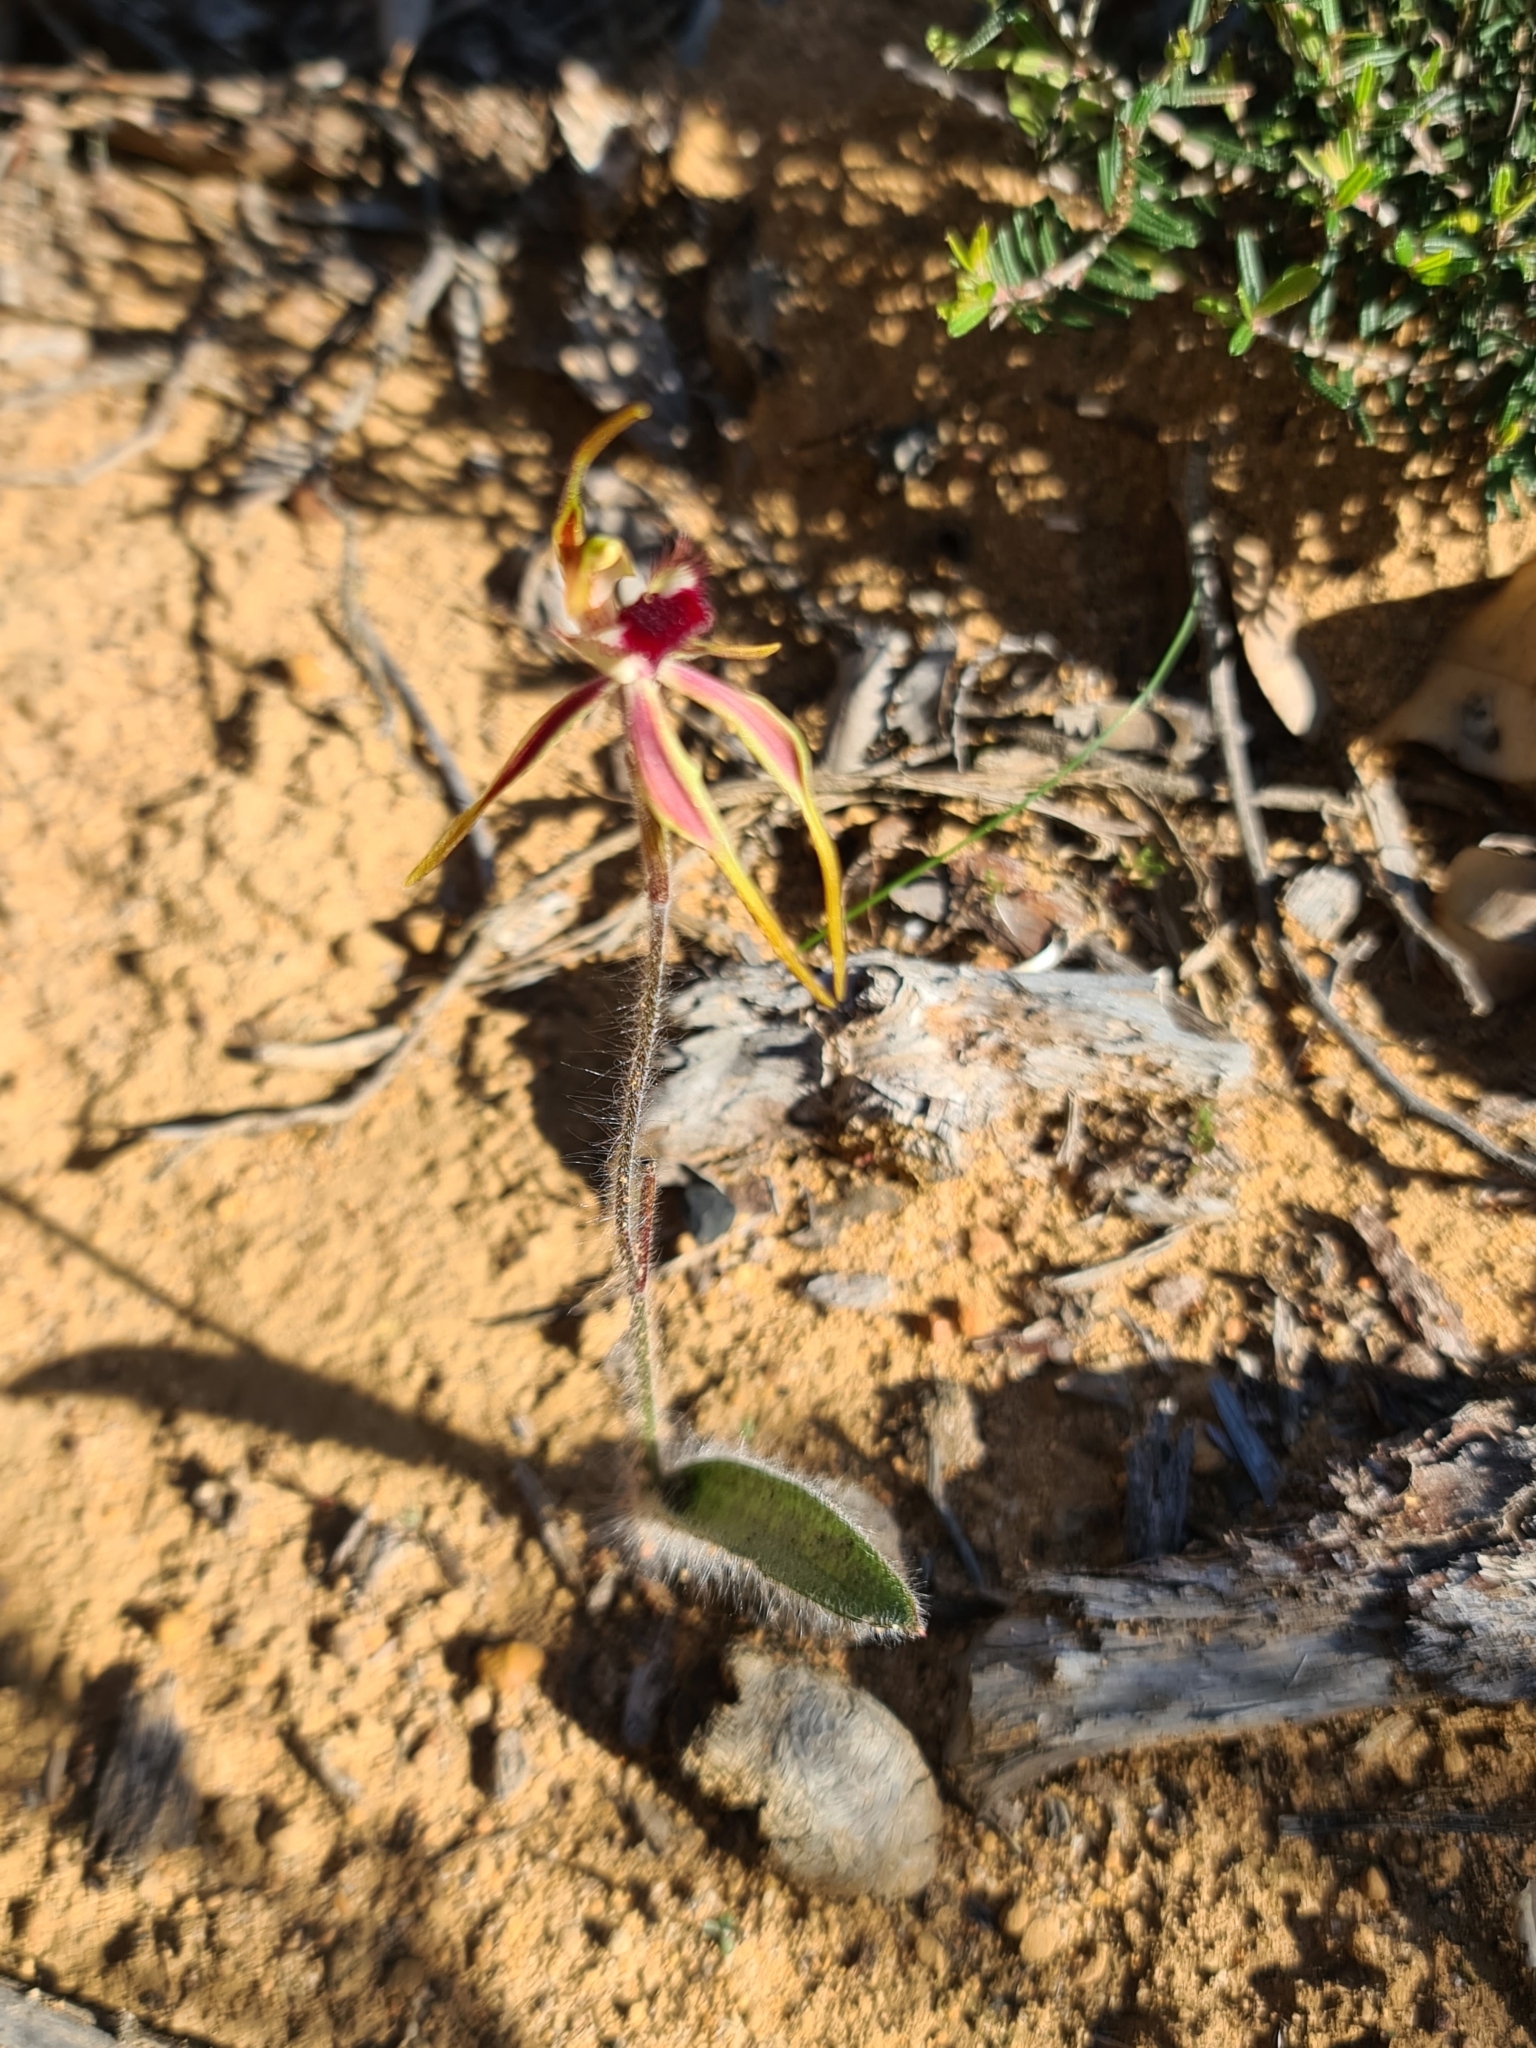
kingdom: Plantae
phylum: Tracheophyta
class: Liliopsida
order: Asparagales
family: Orchidaceae
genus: Caladenia
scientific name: Caladenia longiclavata
